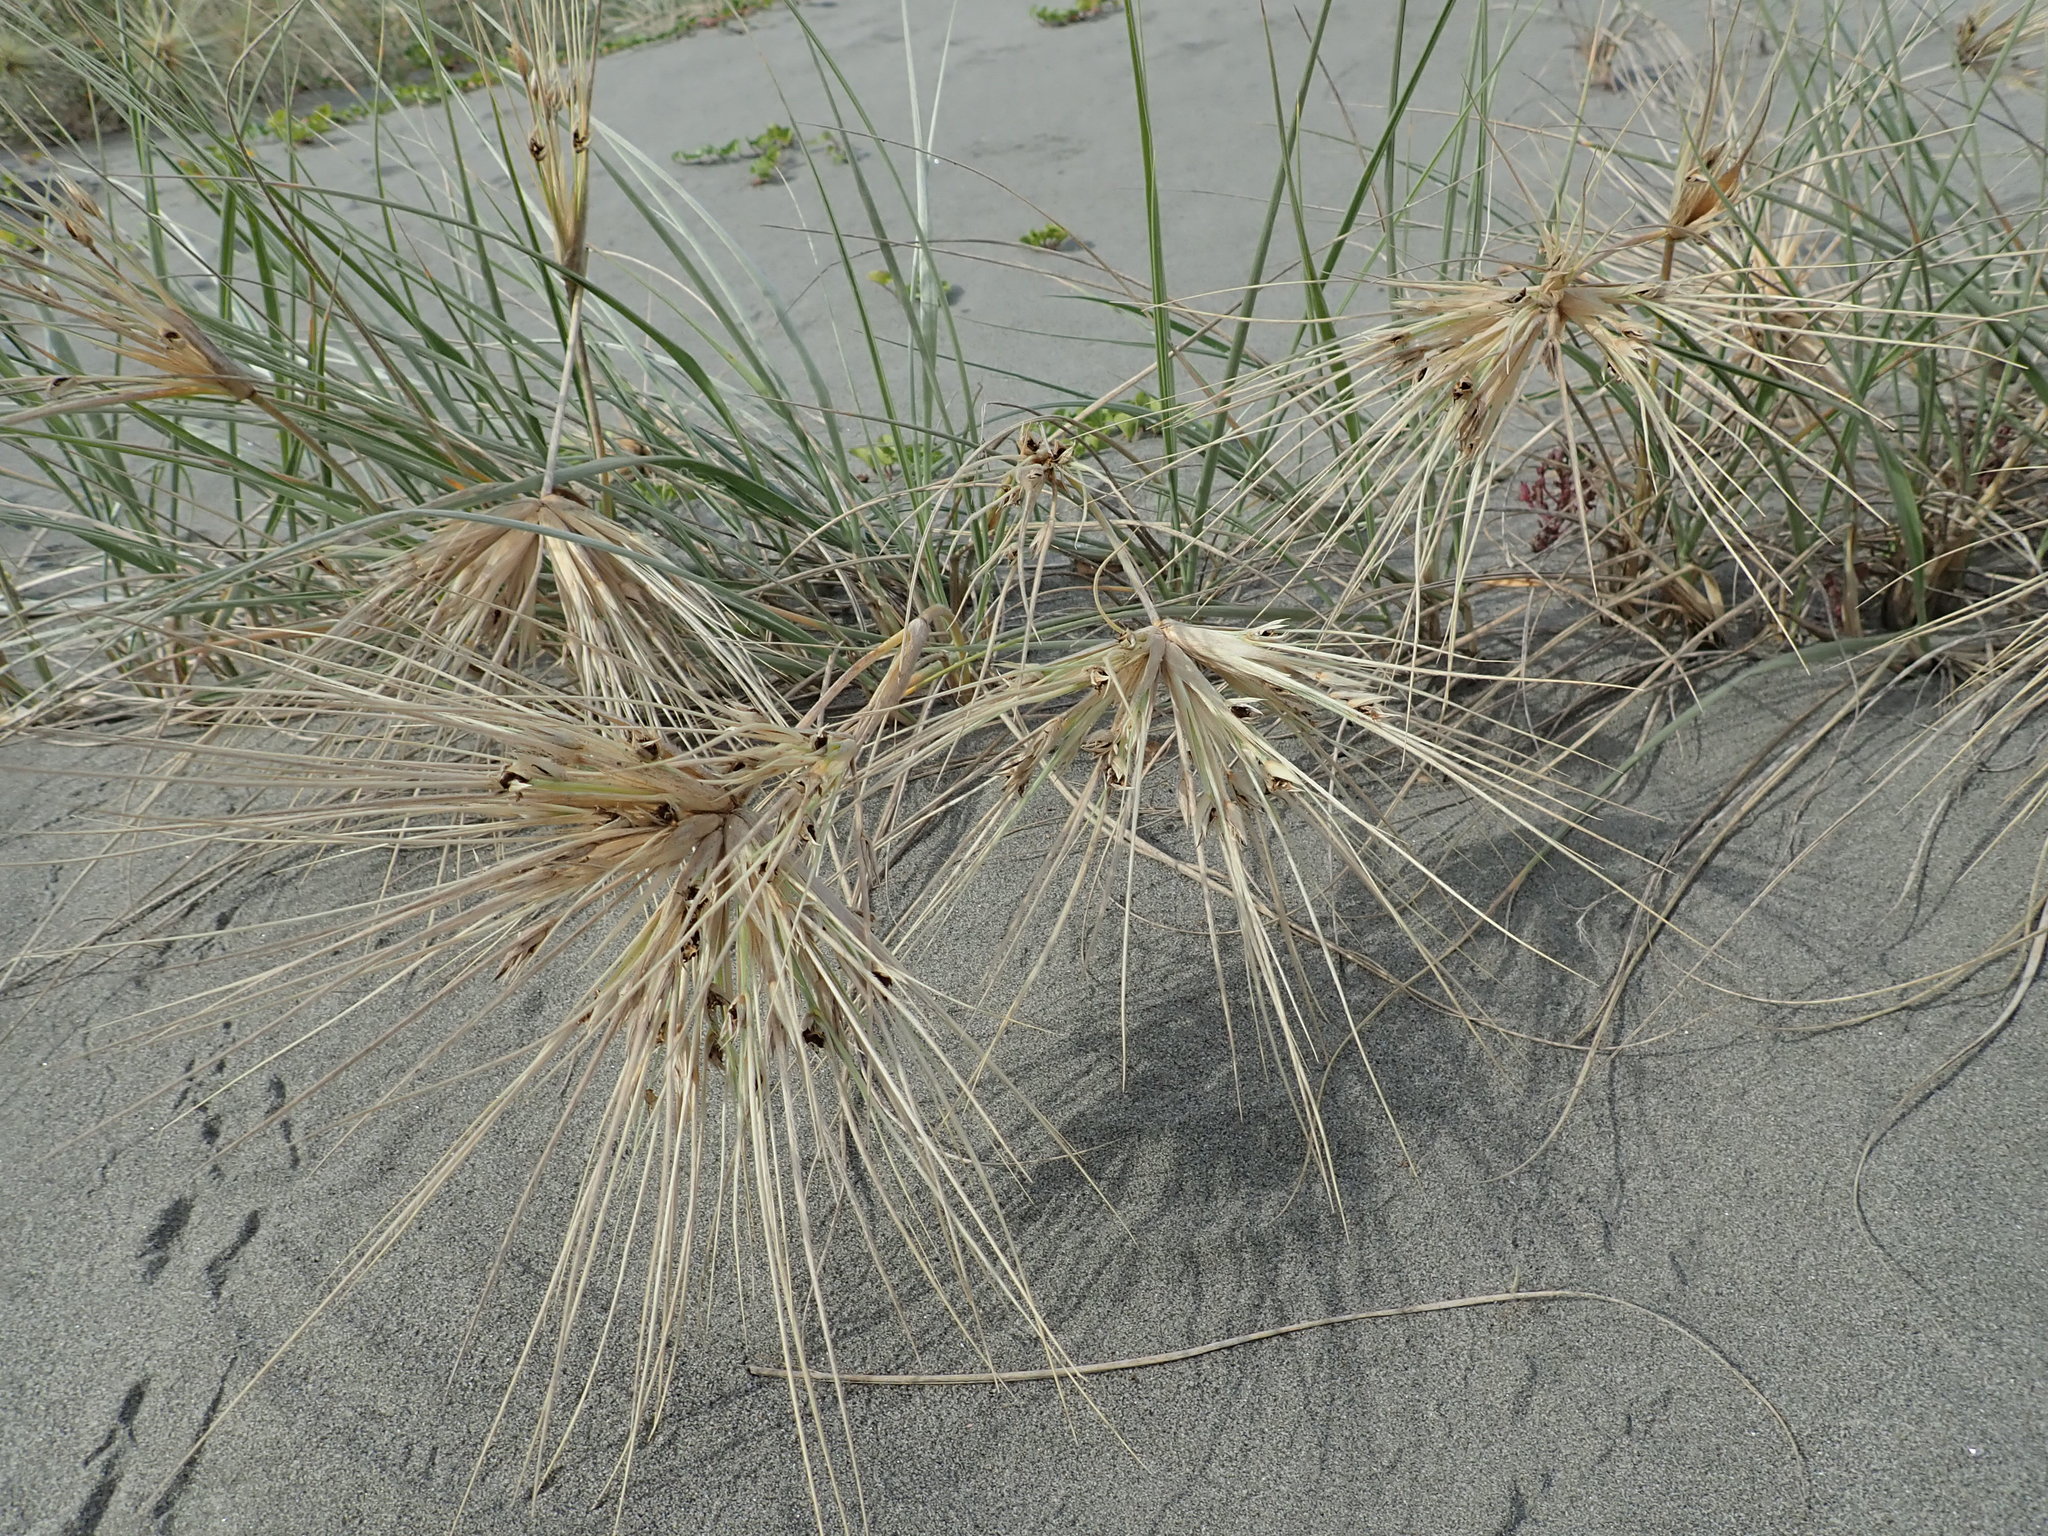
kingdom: Plantae
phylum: Tracheophyta
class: Liliopsida
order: Poales
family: Poaceae
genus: Spinifex
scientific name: Spinifex sericeus
